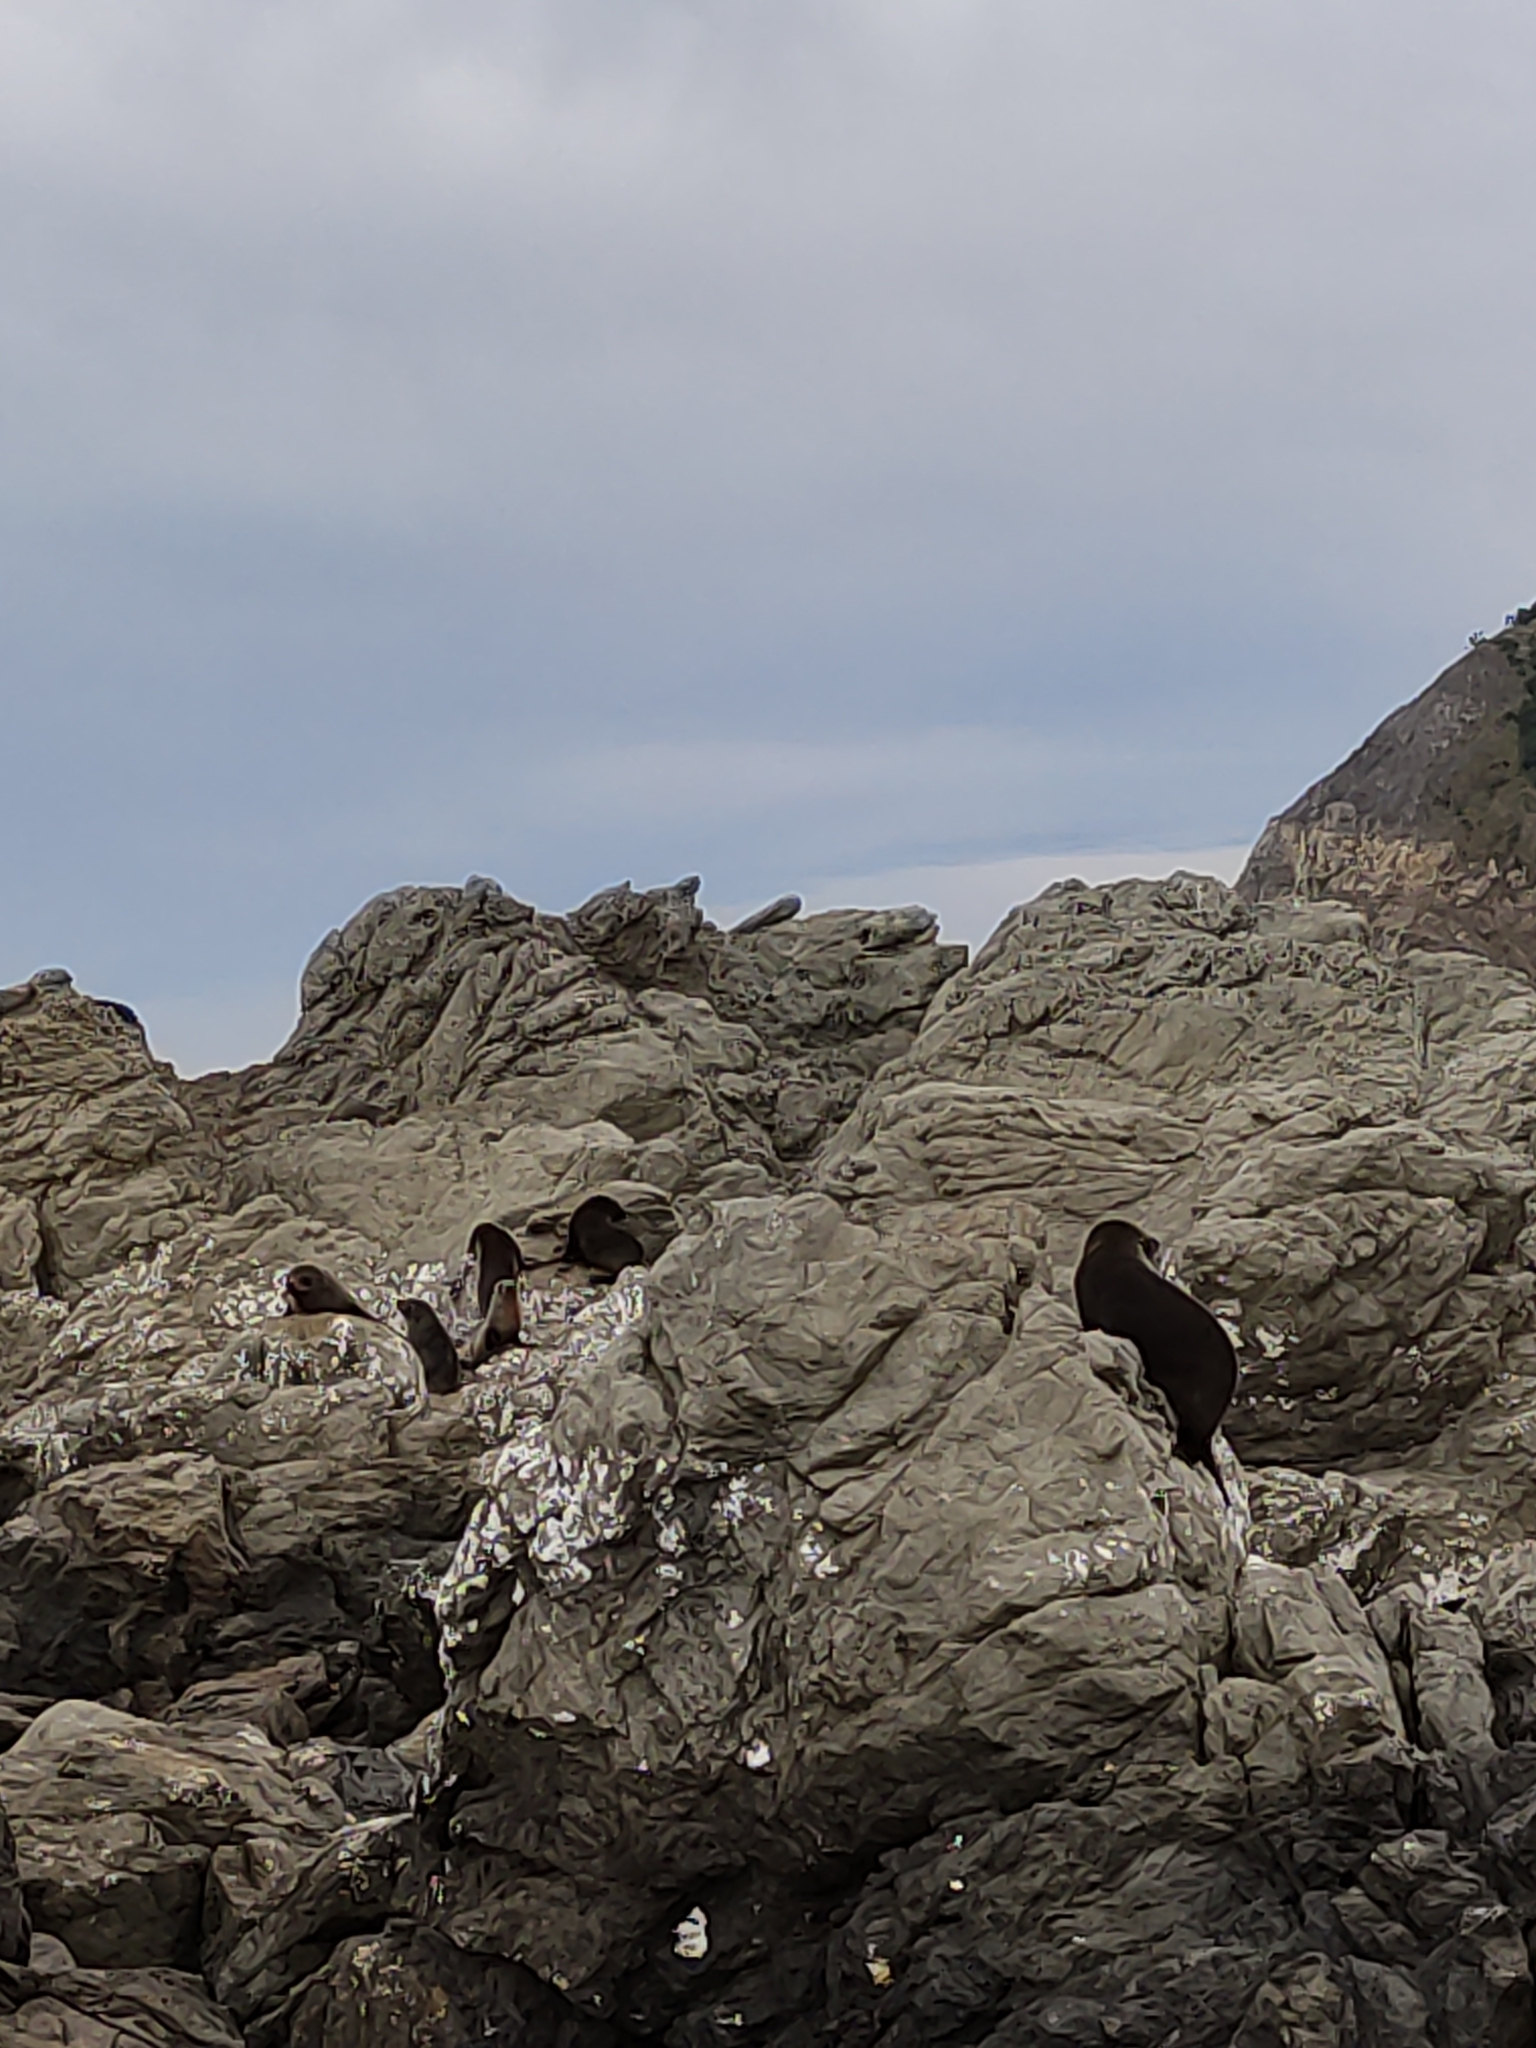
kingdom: Animalia
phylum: Chordata
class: Mammalia
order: Carnivora
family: Otariidae
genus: Arctocephalus
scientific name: Arctocephalus forsteri
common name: New zealand fur seal
